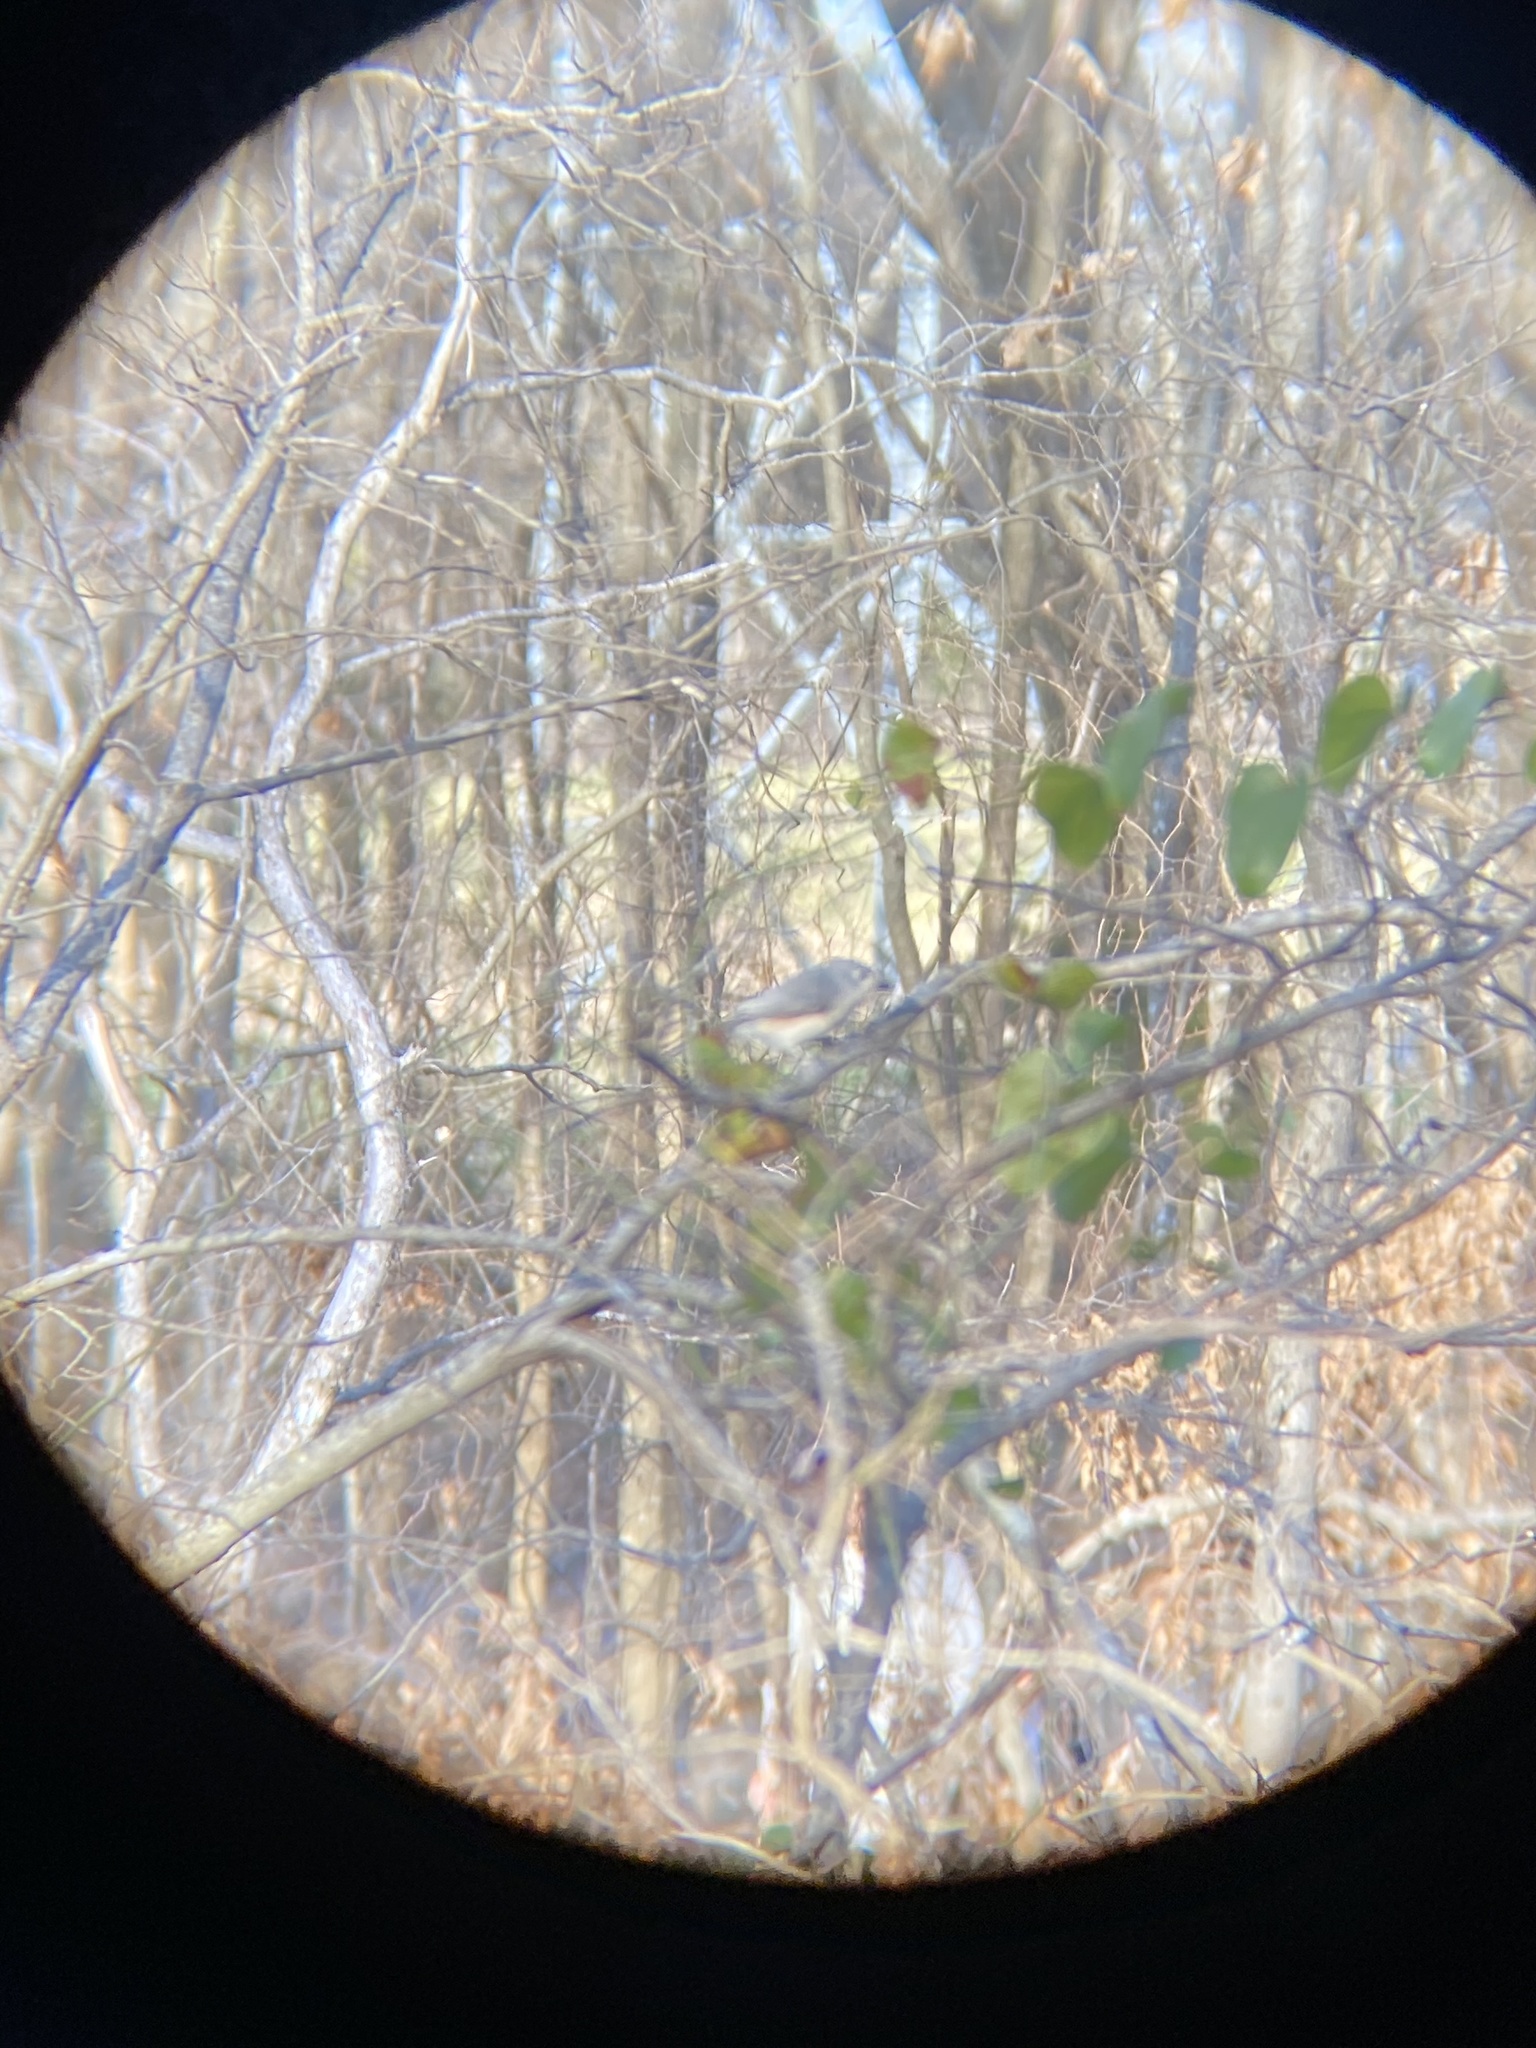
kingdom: Animalia
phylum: Chordata
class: Aves
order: Passeriformes
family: Paridae
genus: Baeolophus
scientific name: Baeolophus bicolor
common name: Tufted titmouse
